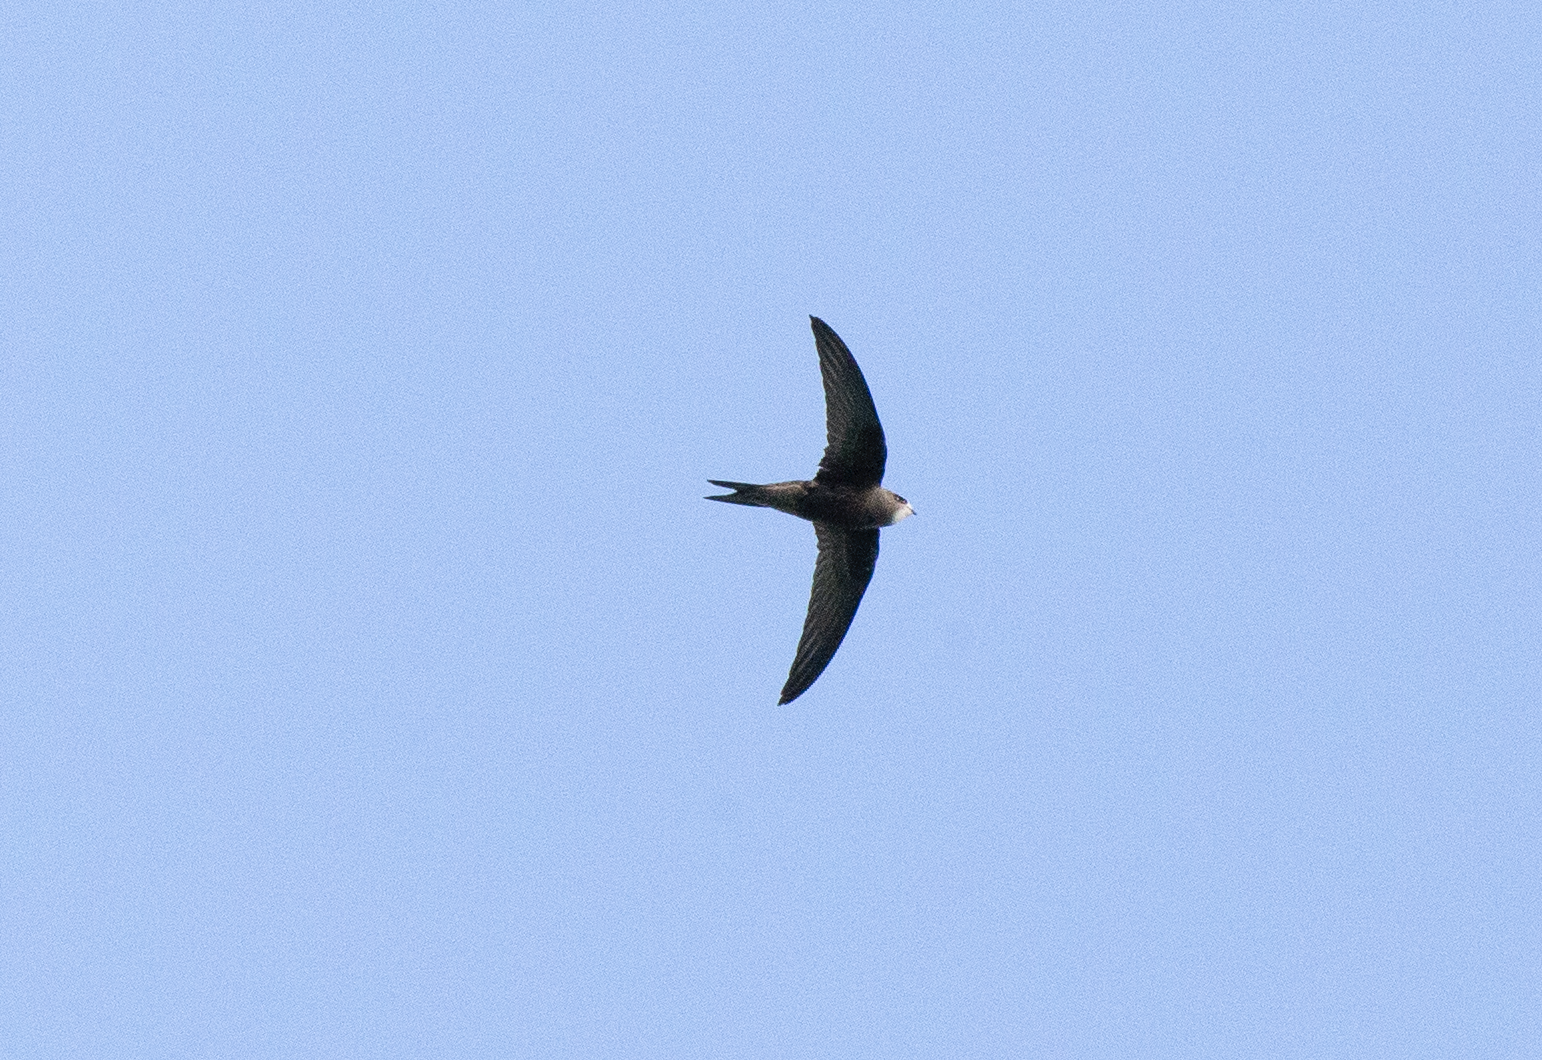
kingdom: Animalia
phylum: Chordata
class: Aves
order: Apodiformes
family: Apodidae
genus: Apus
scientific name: Apus apus
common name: Common swift
